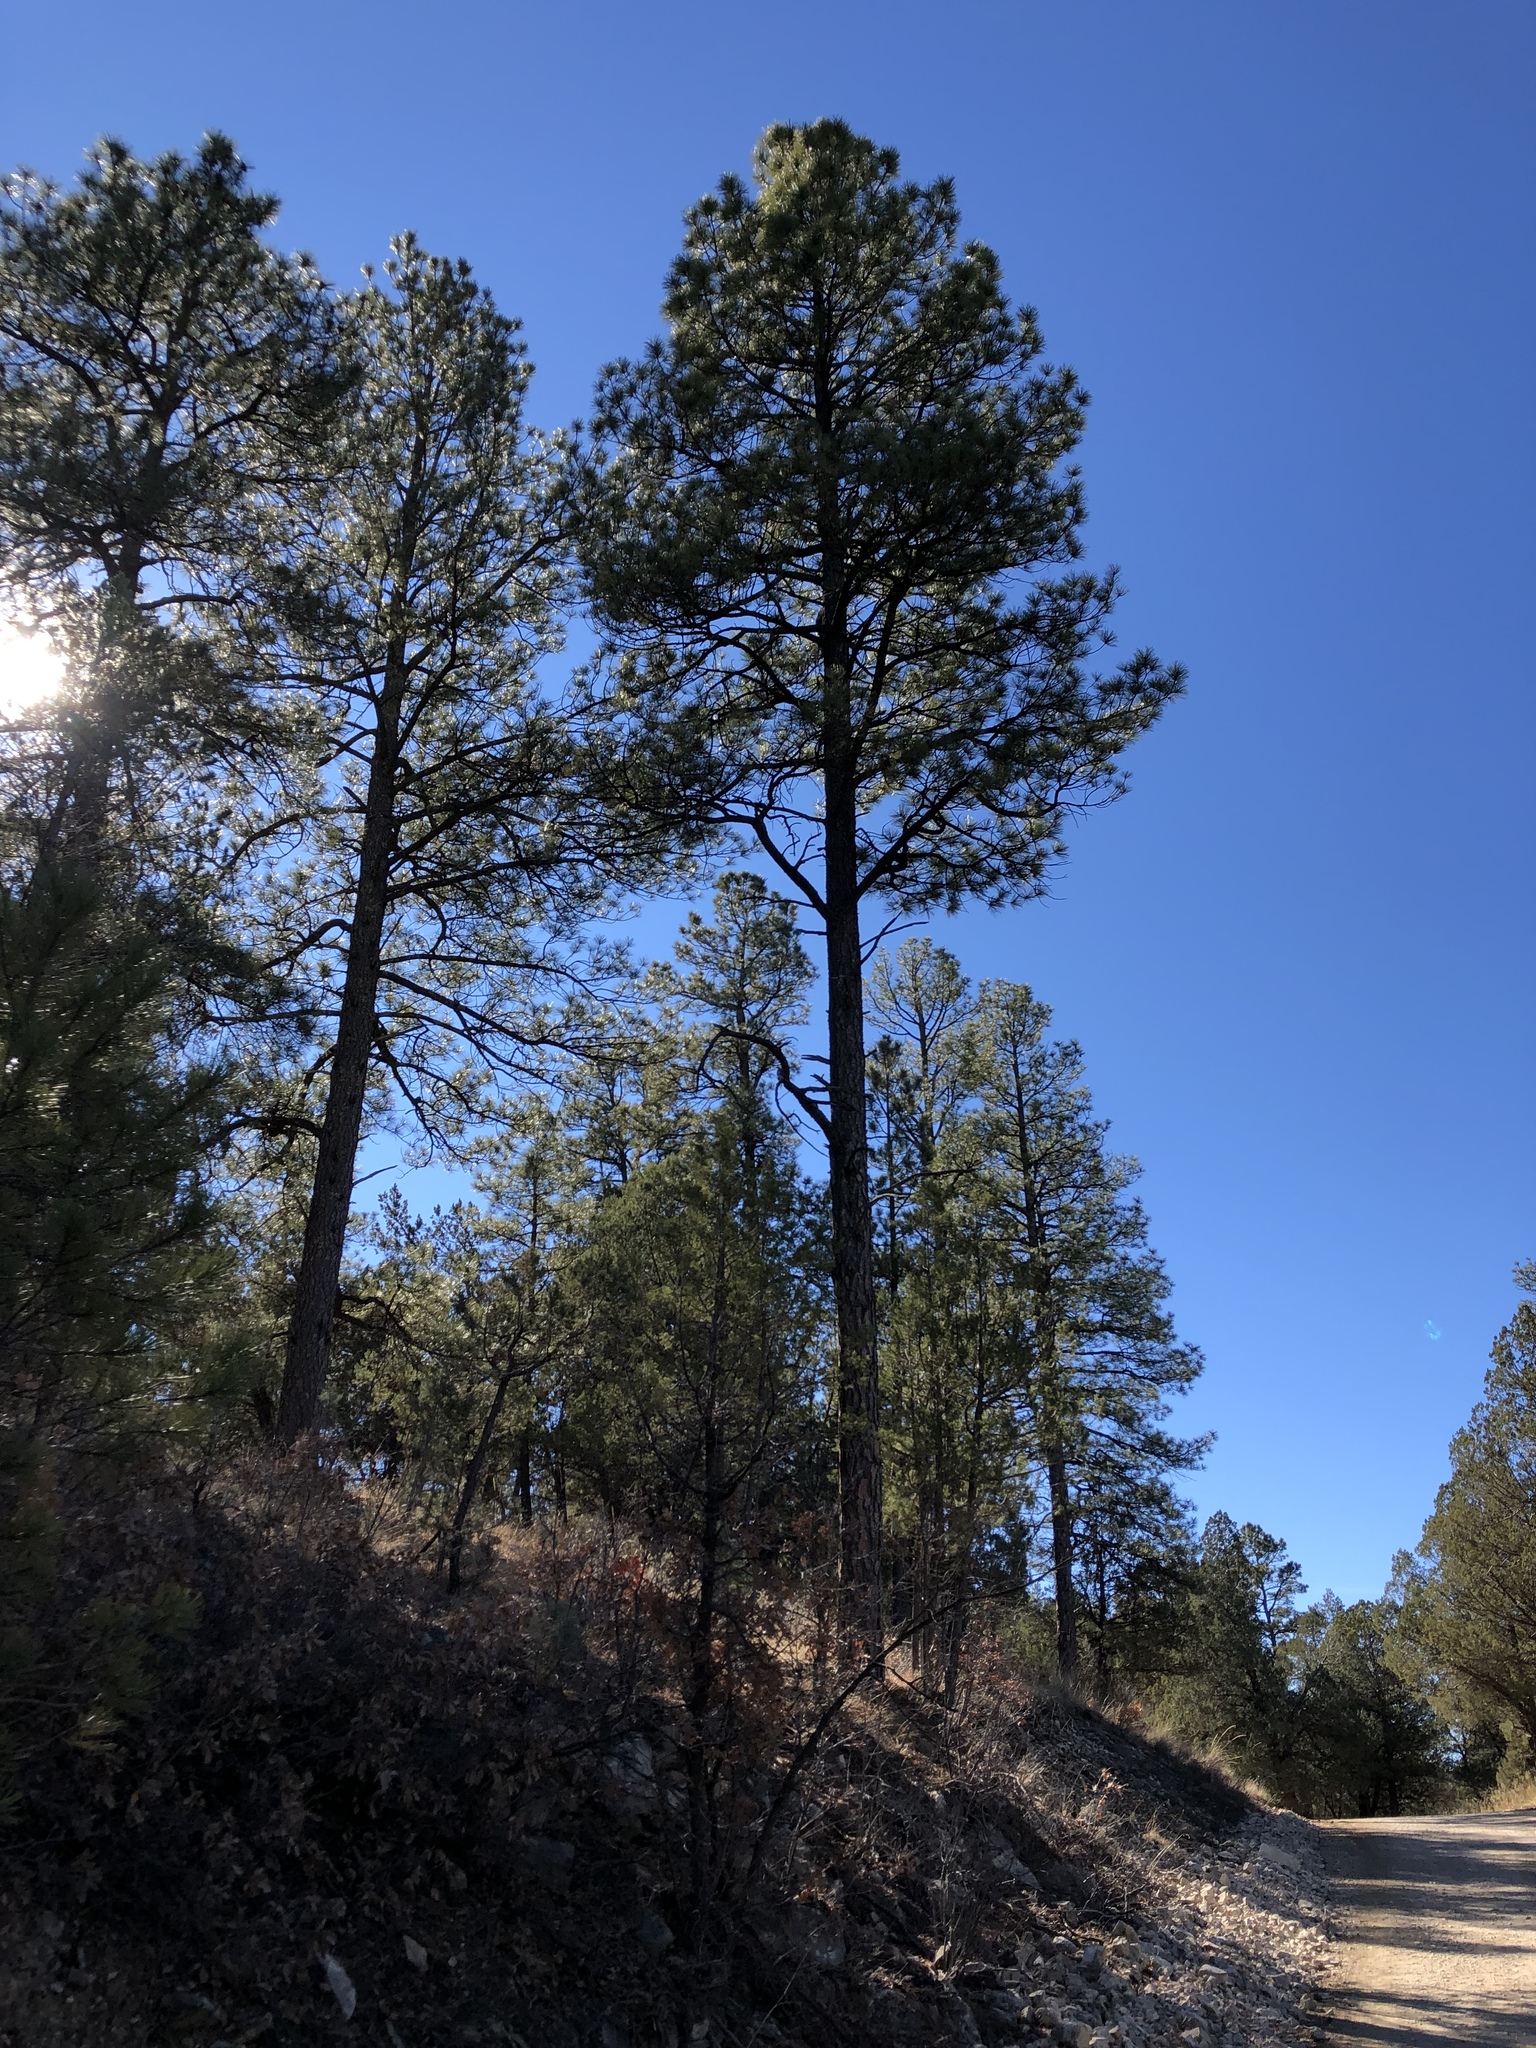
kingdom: Plantae
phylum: Tracheophyta
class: Pinopsida
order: Pinales
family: Pinaceae
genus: Pinus
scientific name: Pinus ponderosa
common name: Western yellow-pine
